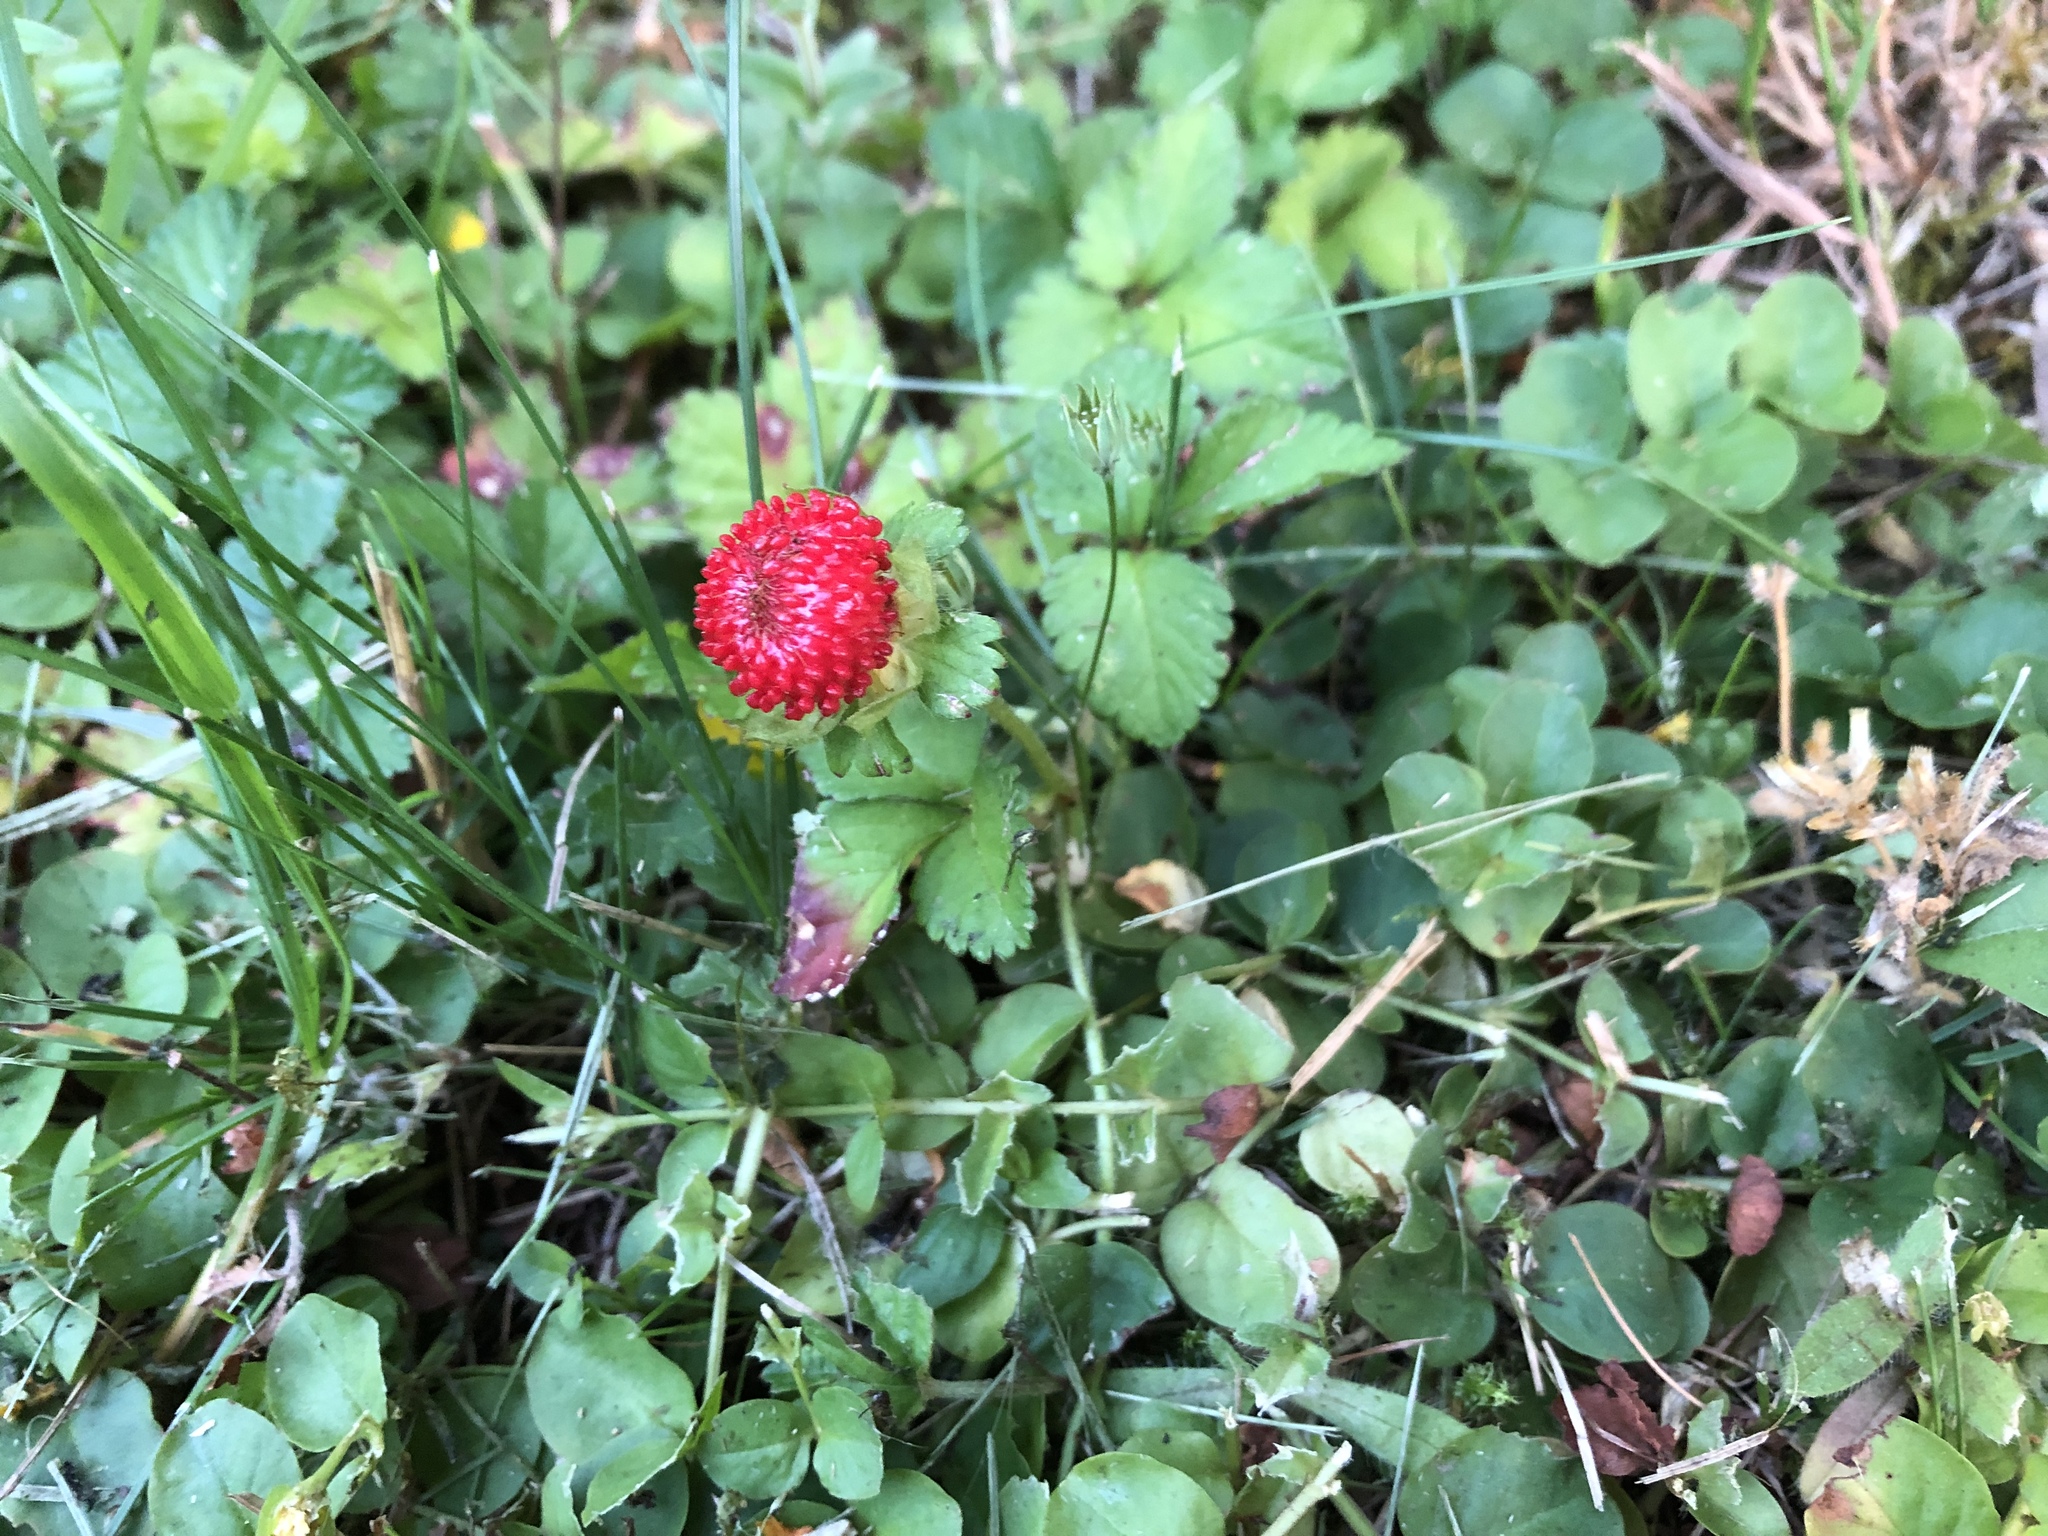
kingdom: Plantae
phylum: Tracheophyta
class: Magnoliopsida
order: Rosales
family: Rosaceae
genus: Potentilla
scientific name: Potentilla indica
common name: Yellow-flowered strawberry
